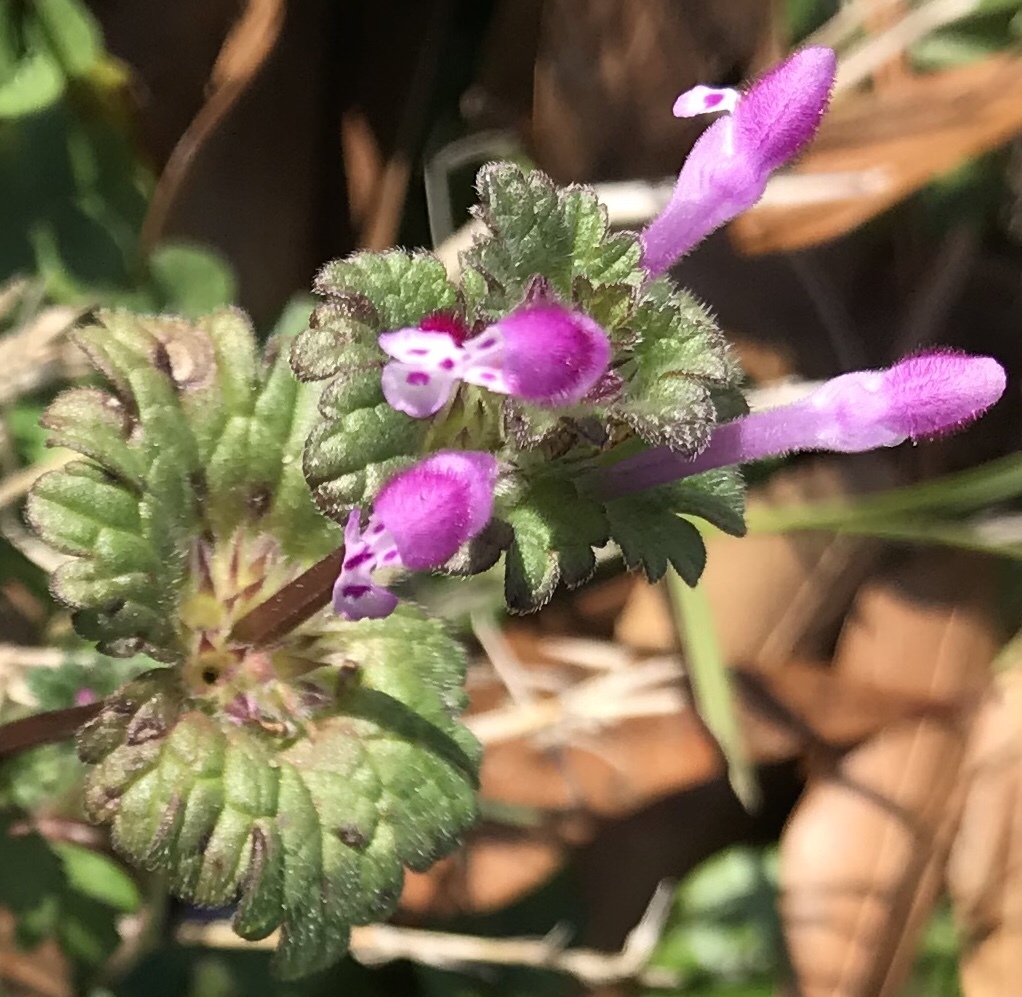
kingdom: Plantae
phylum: Tracheophyta
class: Magnoliopsida
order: Lamiales
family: Lamiaceae
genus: Lamium
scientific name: Lamium amplexicaule
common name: Henbit dead-nettle
